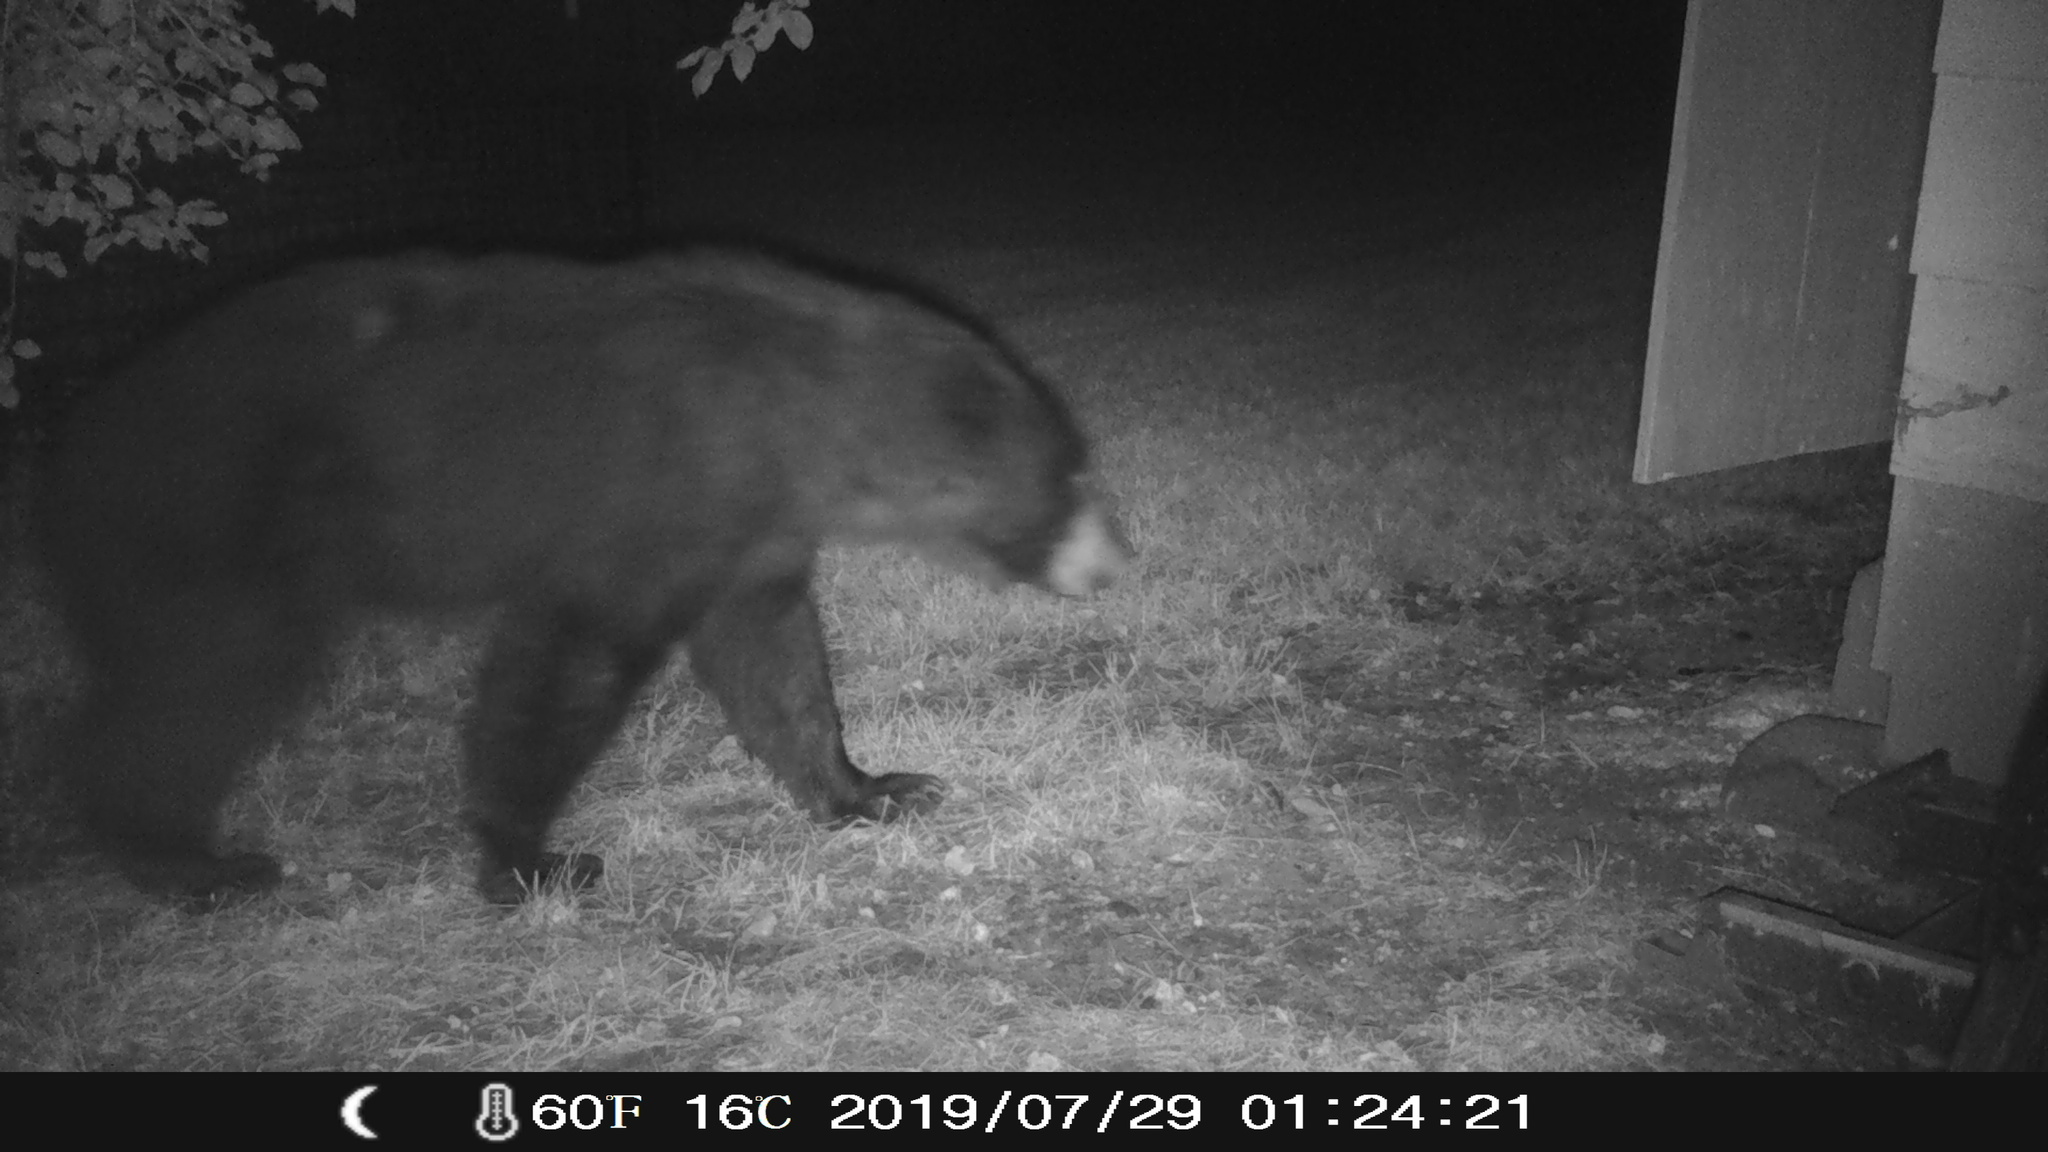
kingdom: Animalia
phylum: Chordata
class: Mammalia
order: Carnivora
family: Ursidae
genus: Ursus
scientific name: Ursus americanus
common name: American black bear
